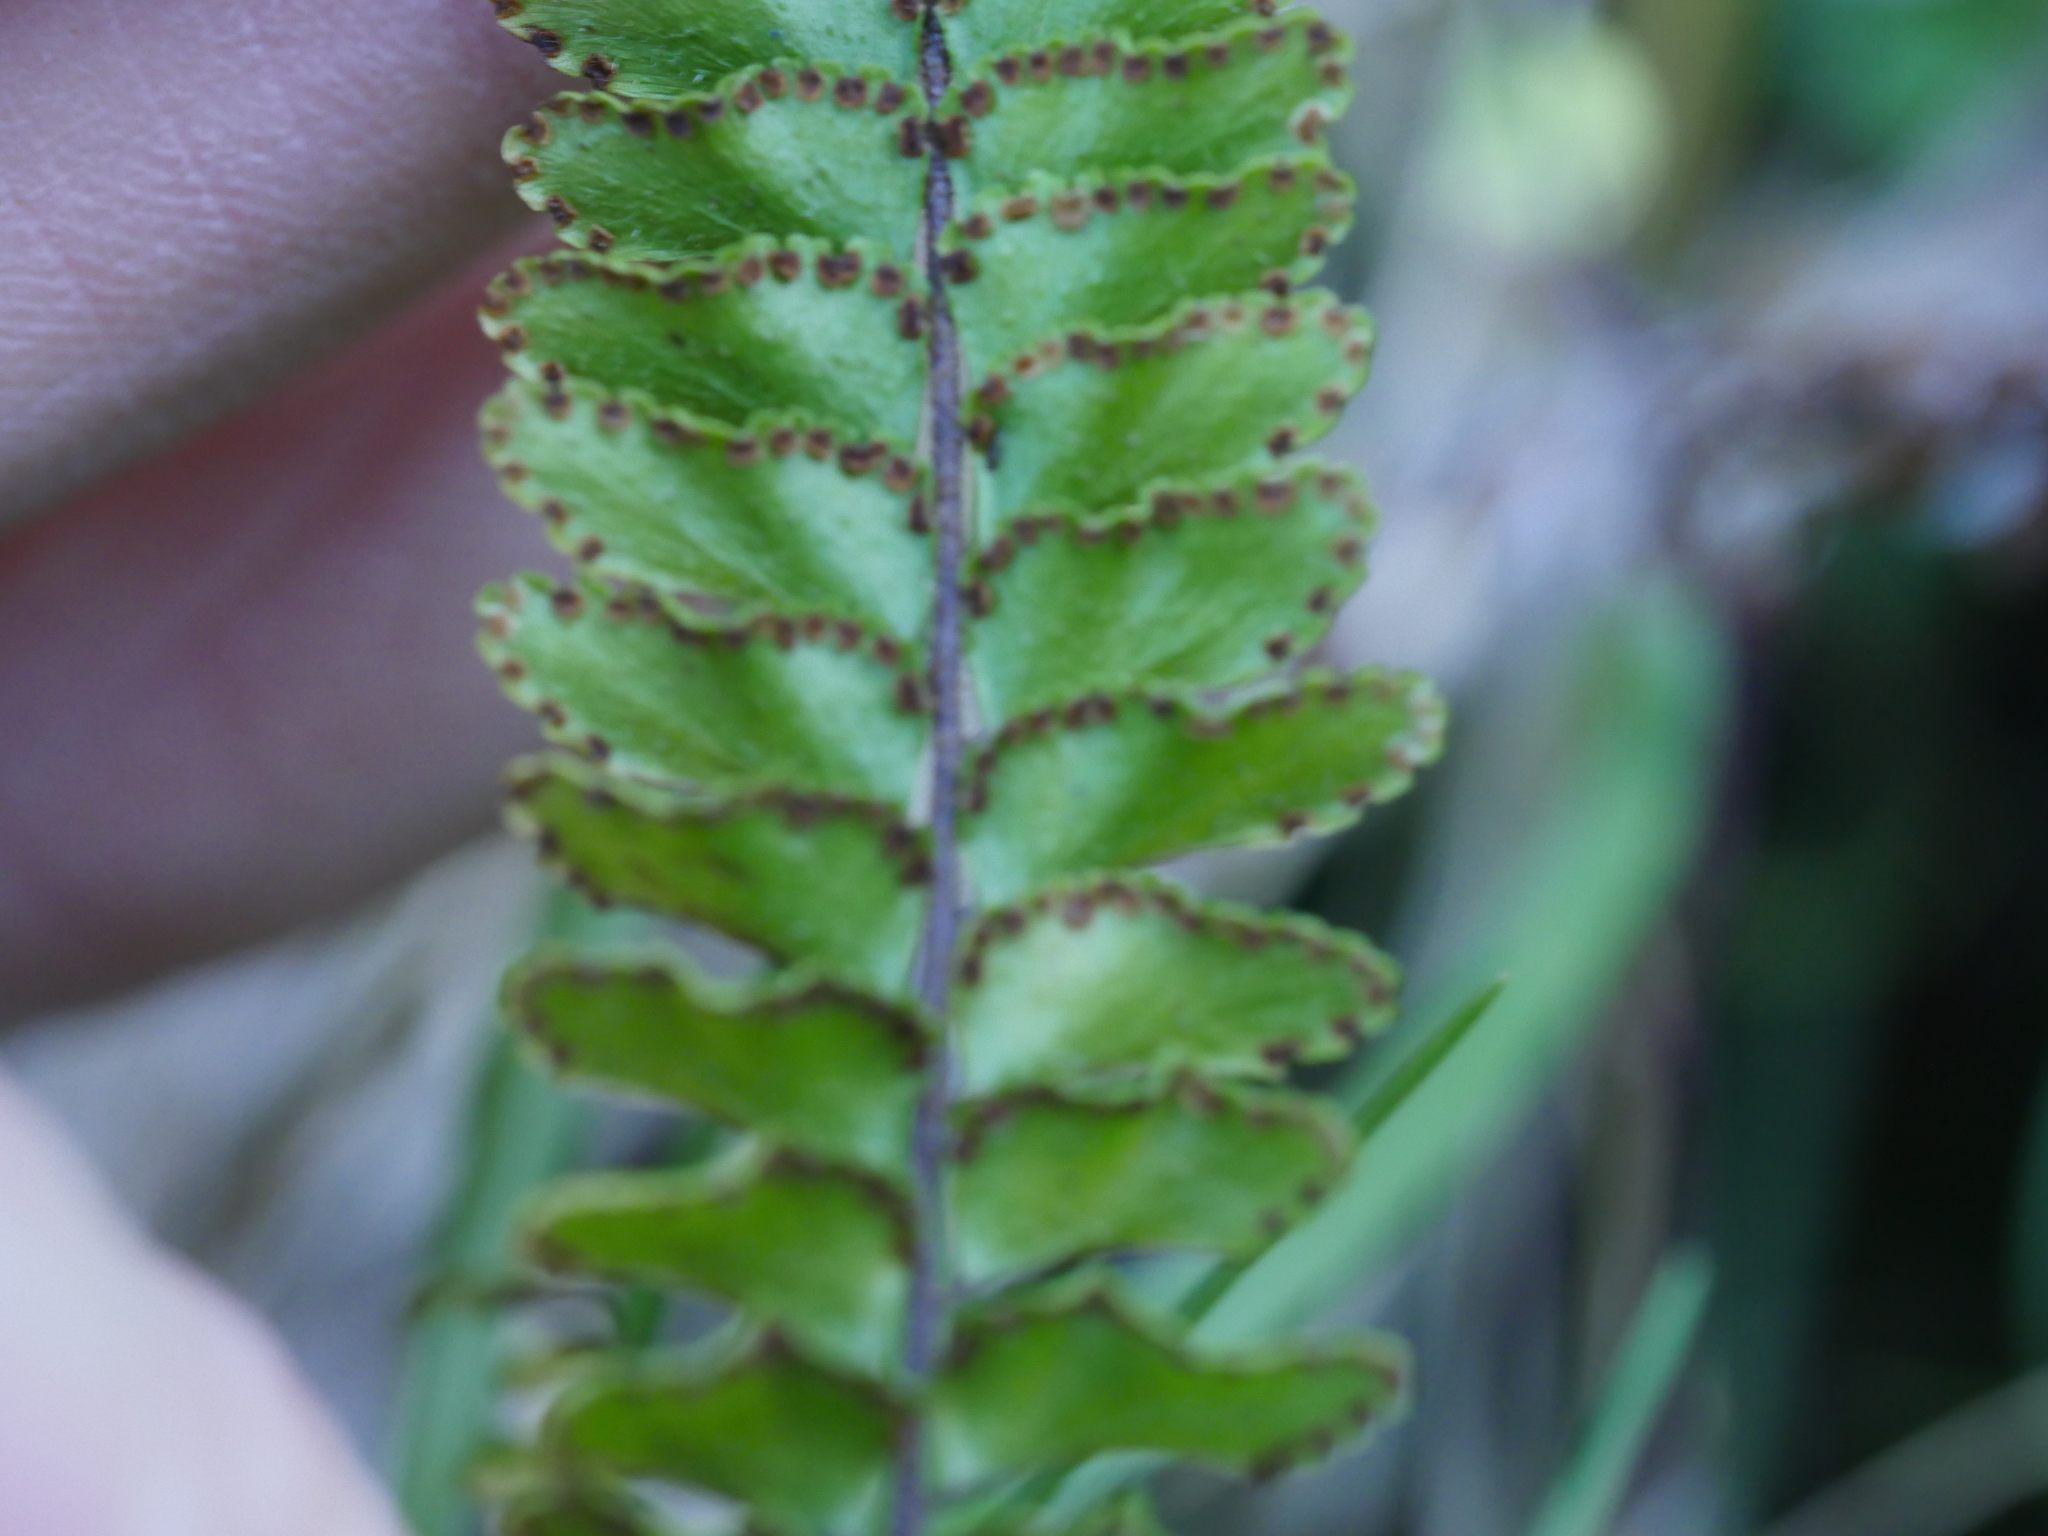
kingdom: Plantae
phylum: Tracheophyta
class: Polypodiopsida
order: Polypodiales
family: Pteridaceae
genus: Adiantum
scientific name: Adiantum hispidulum
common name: Rough maidenhair
